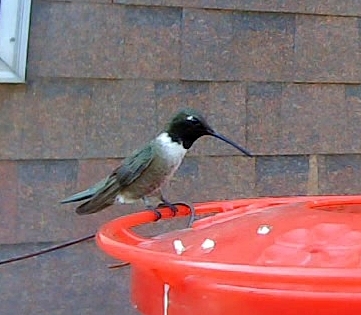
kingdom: Animalia
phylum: Chordata
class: Aves
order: Apodiformes
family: Trochilidae
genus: Archilochus
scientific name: Archilochus alexandri
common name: Black-chinned hummingbird
